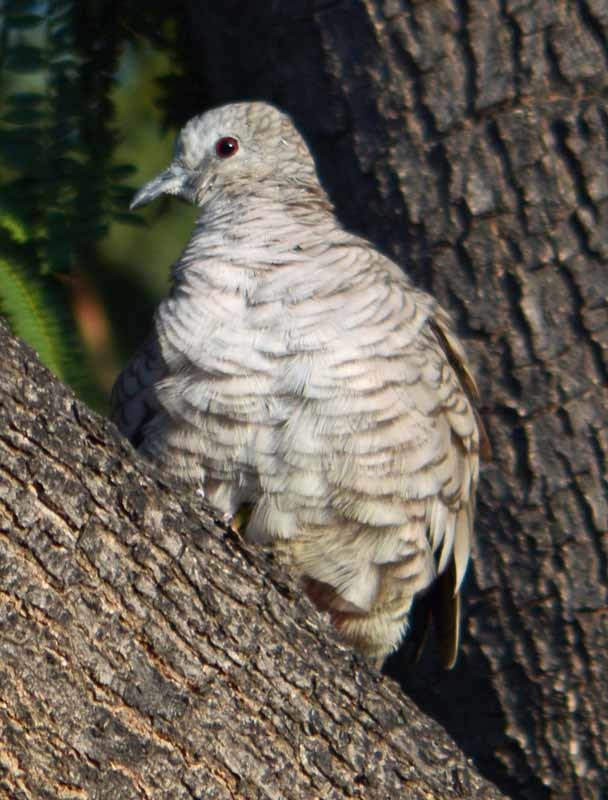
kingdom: Animalia
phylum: Chordata
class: Aves
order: Columbiformes
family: Columbidae
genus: Columbina
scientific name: Columbina inca
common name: Inca dove
